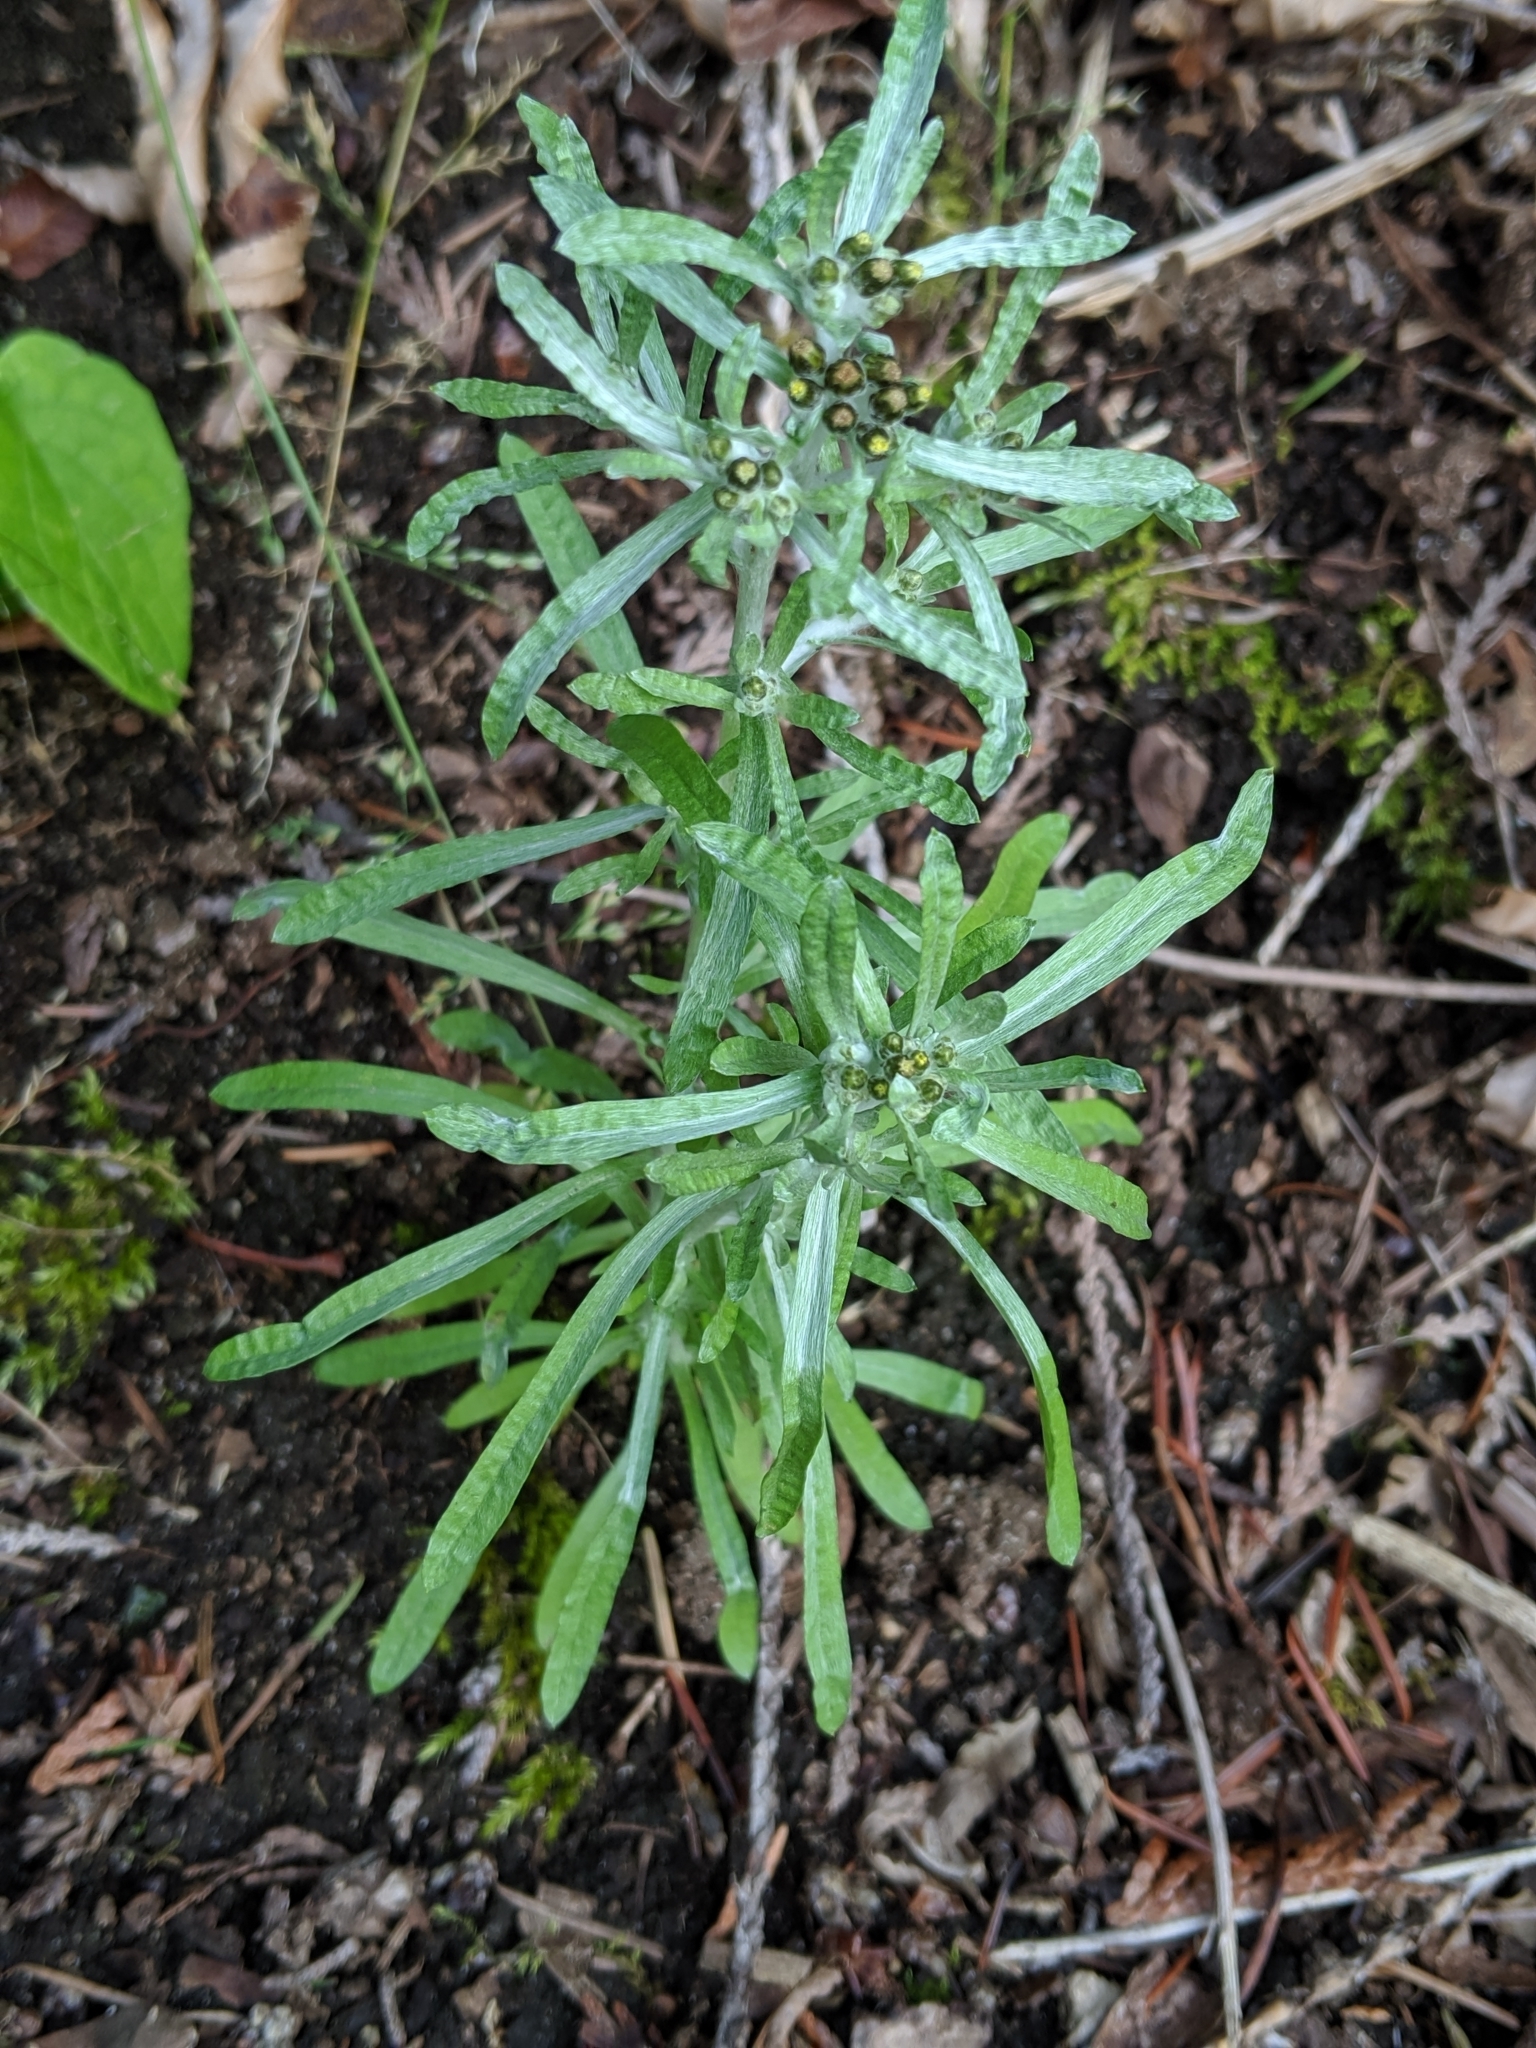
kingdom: Plantae
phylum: Tracheophyta
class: Magnoliopsida
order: Asterales
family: Asteraceae
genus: Gnaphalium
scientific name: Gnaphalium uliginosum
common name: Marsh cudweed
